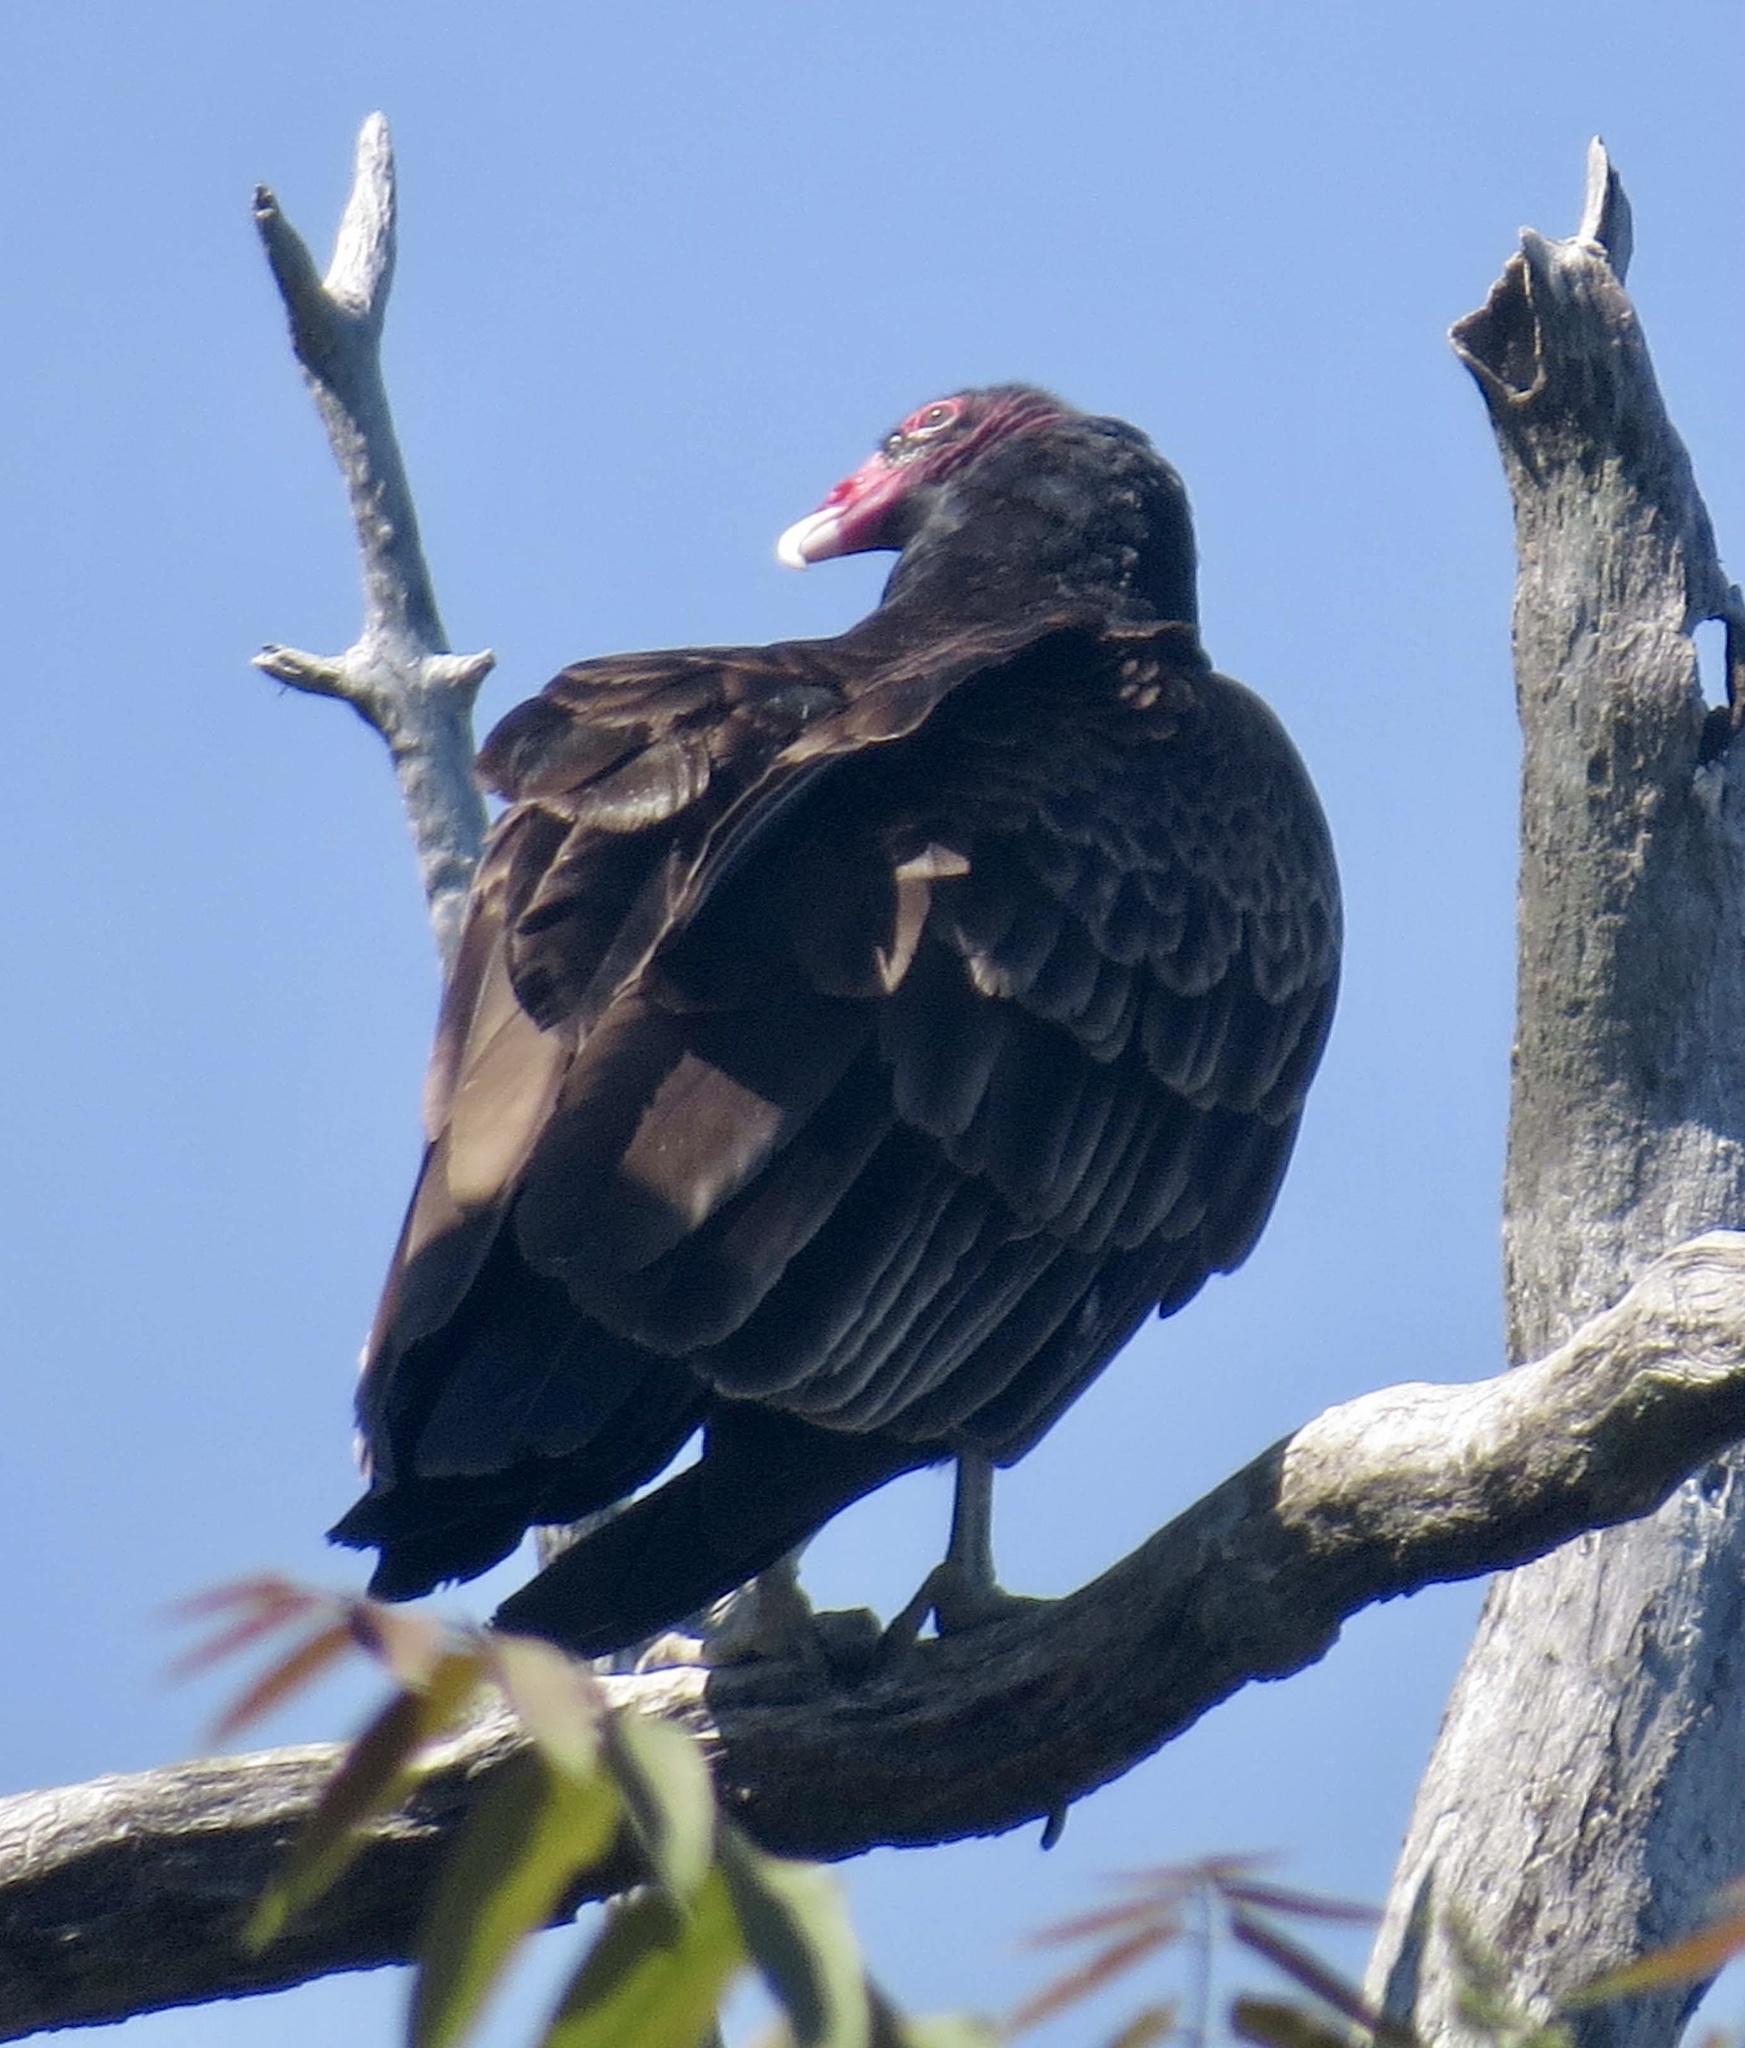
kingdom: Animalia
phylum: Chordata
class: Aves
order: Accipitriformes
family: Cathartidae
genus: Cathartes
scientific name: Cathartes aura
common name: Turkey vulture
